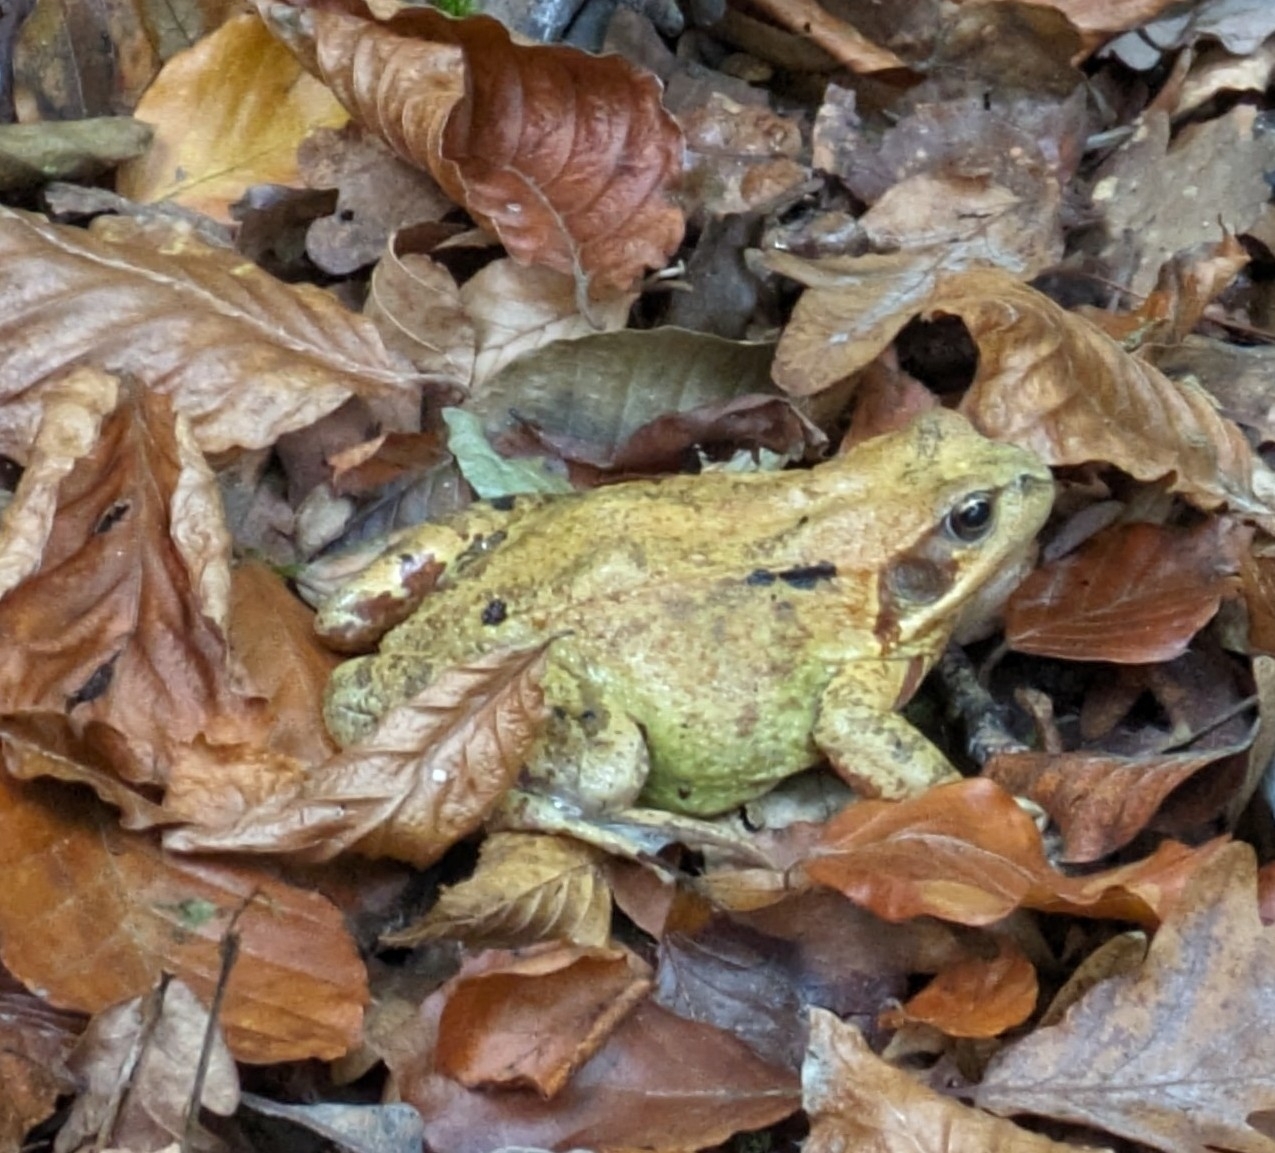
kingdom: Animalia
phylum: Chordata
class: Amphibia
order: Anura
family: Ranidae
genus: Rana
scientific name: Rana temporaria
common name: Common frog
